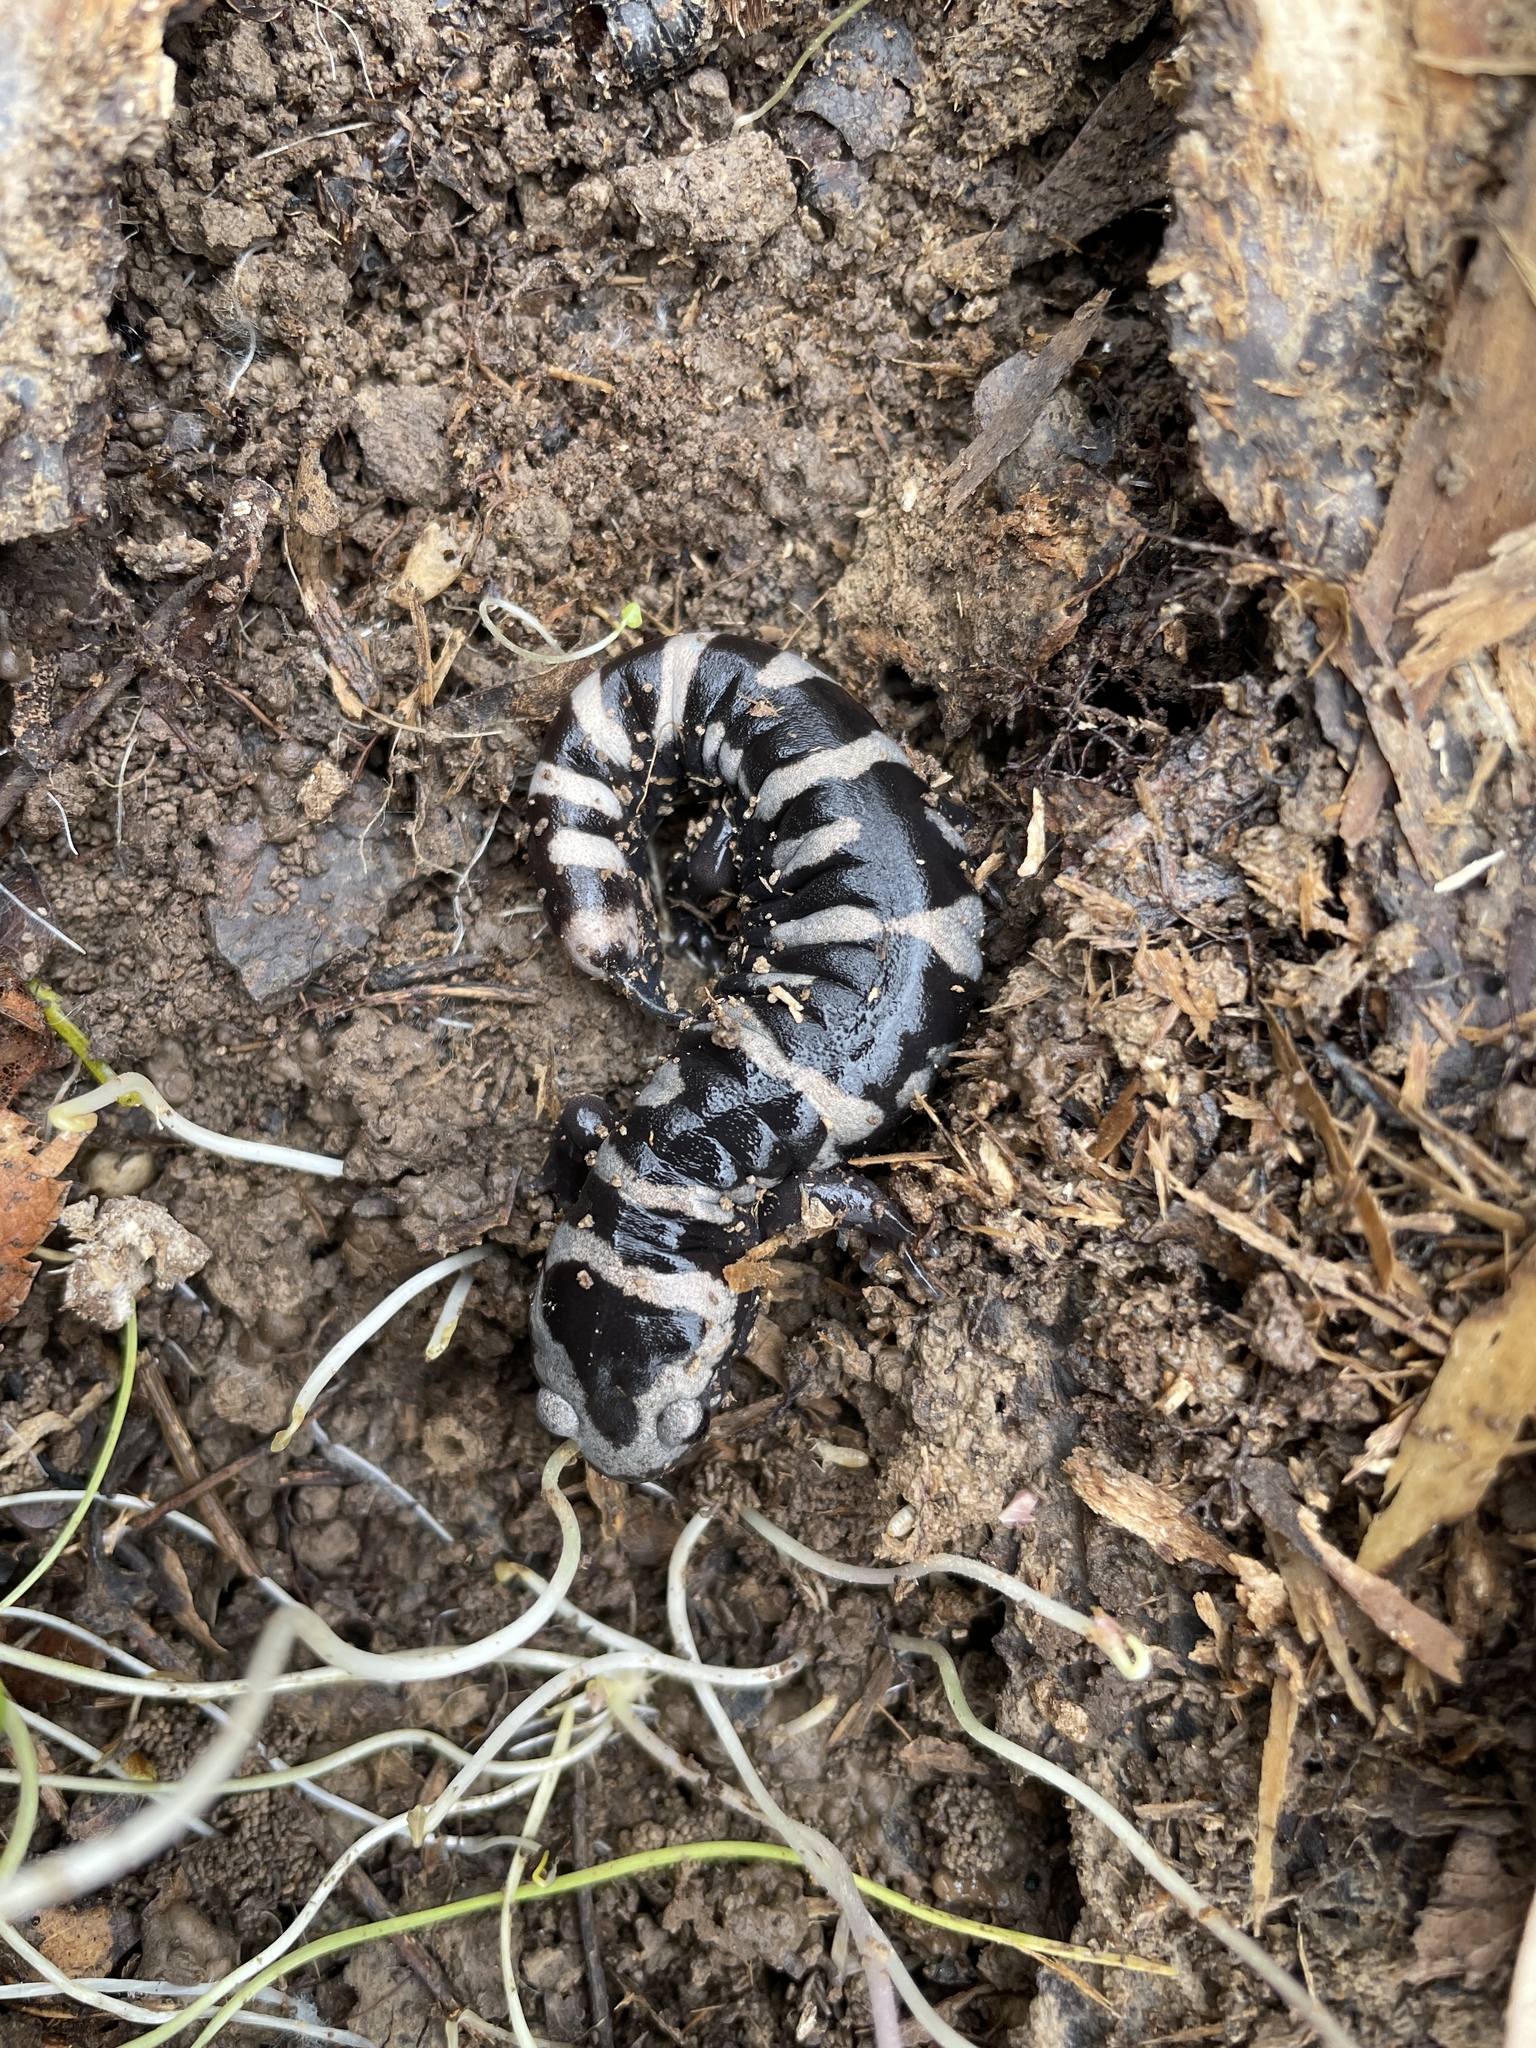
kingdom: Animalia
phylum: Chordata
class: Amphibia
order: Caudata
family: Ambystomatidae
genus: Ambystoma
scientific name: Ambystoma opacum
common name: Marbled salamander
